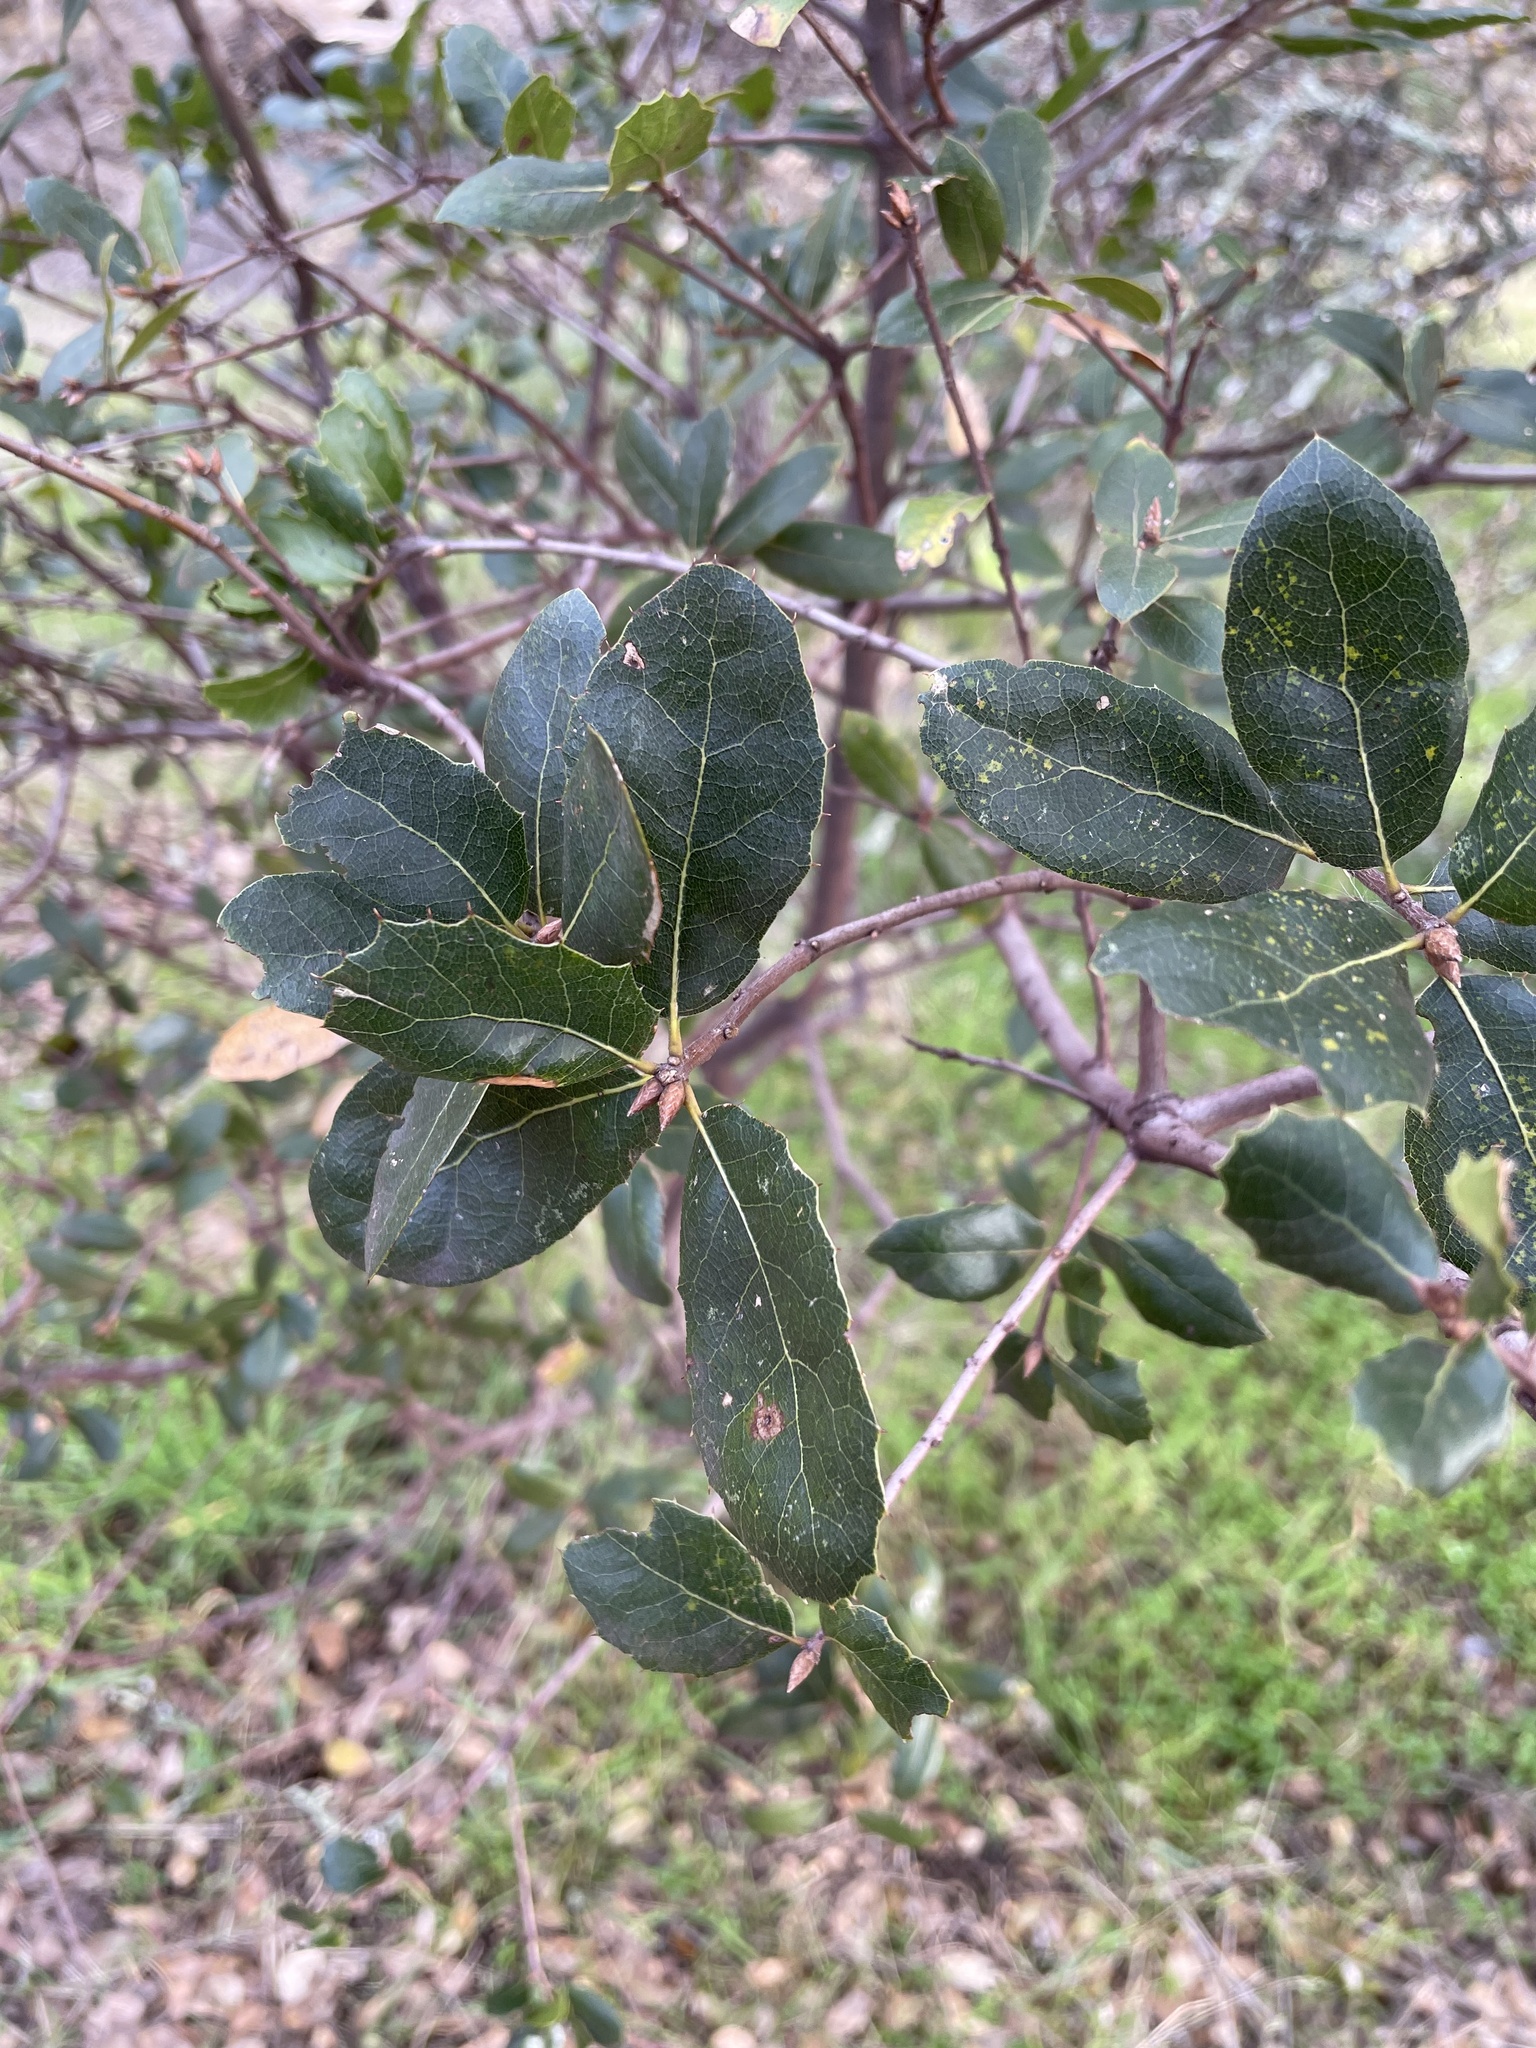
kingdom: Plantae
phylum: Tracheophyta
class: Magnoliopsida
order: Fagales
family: Fagaceae
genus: Quercus
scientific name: Quercus wislizeni
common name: Interior live oak
